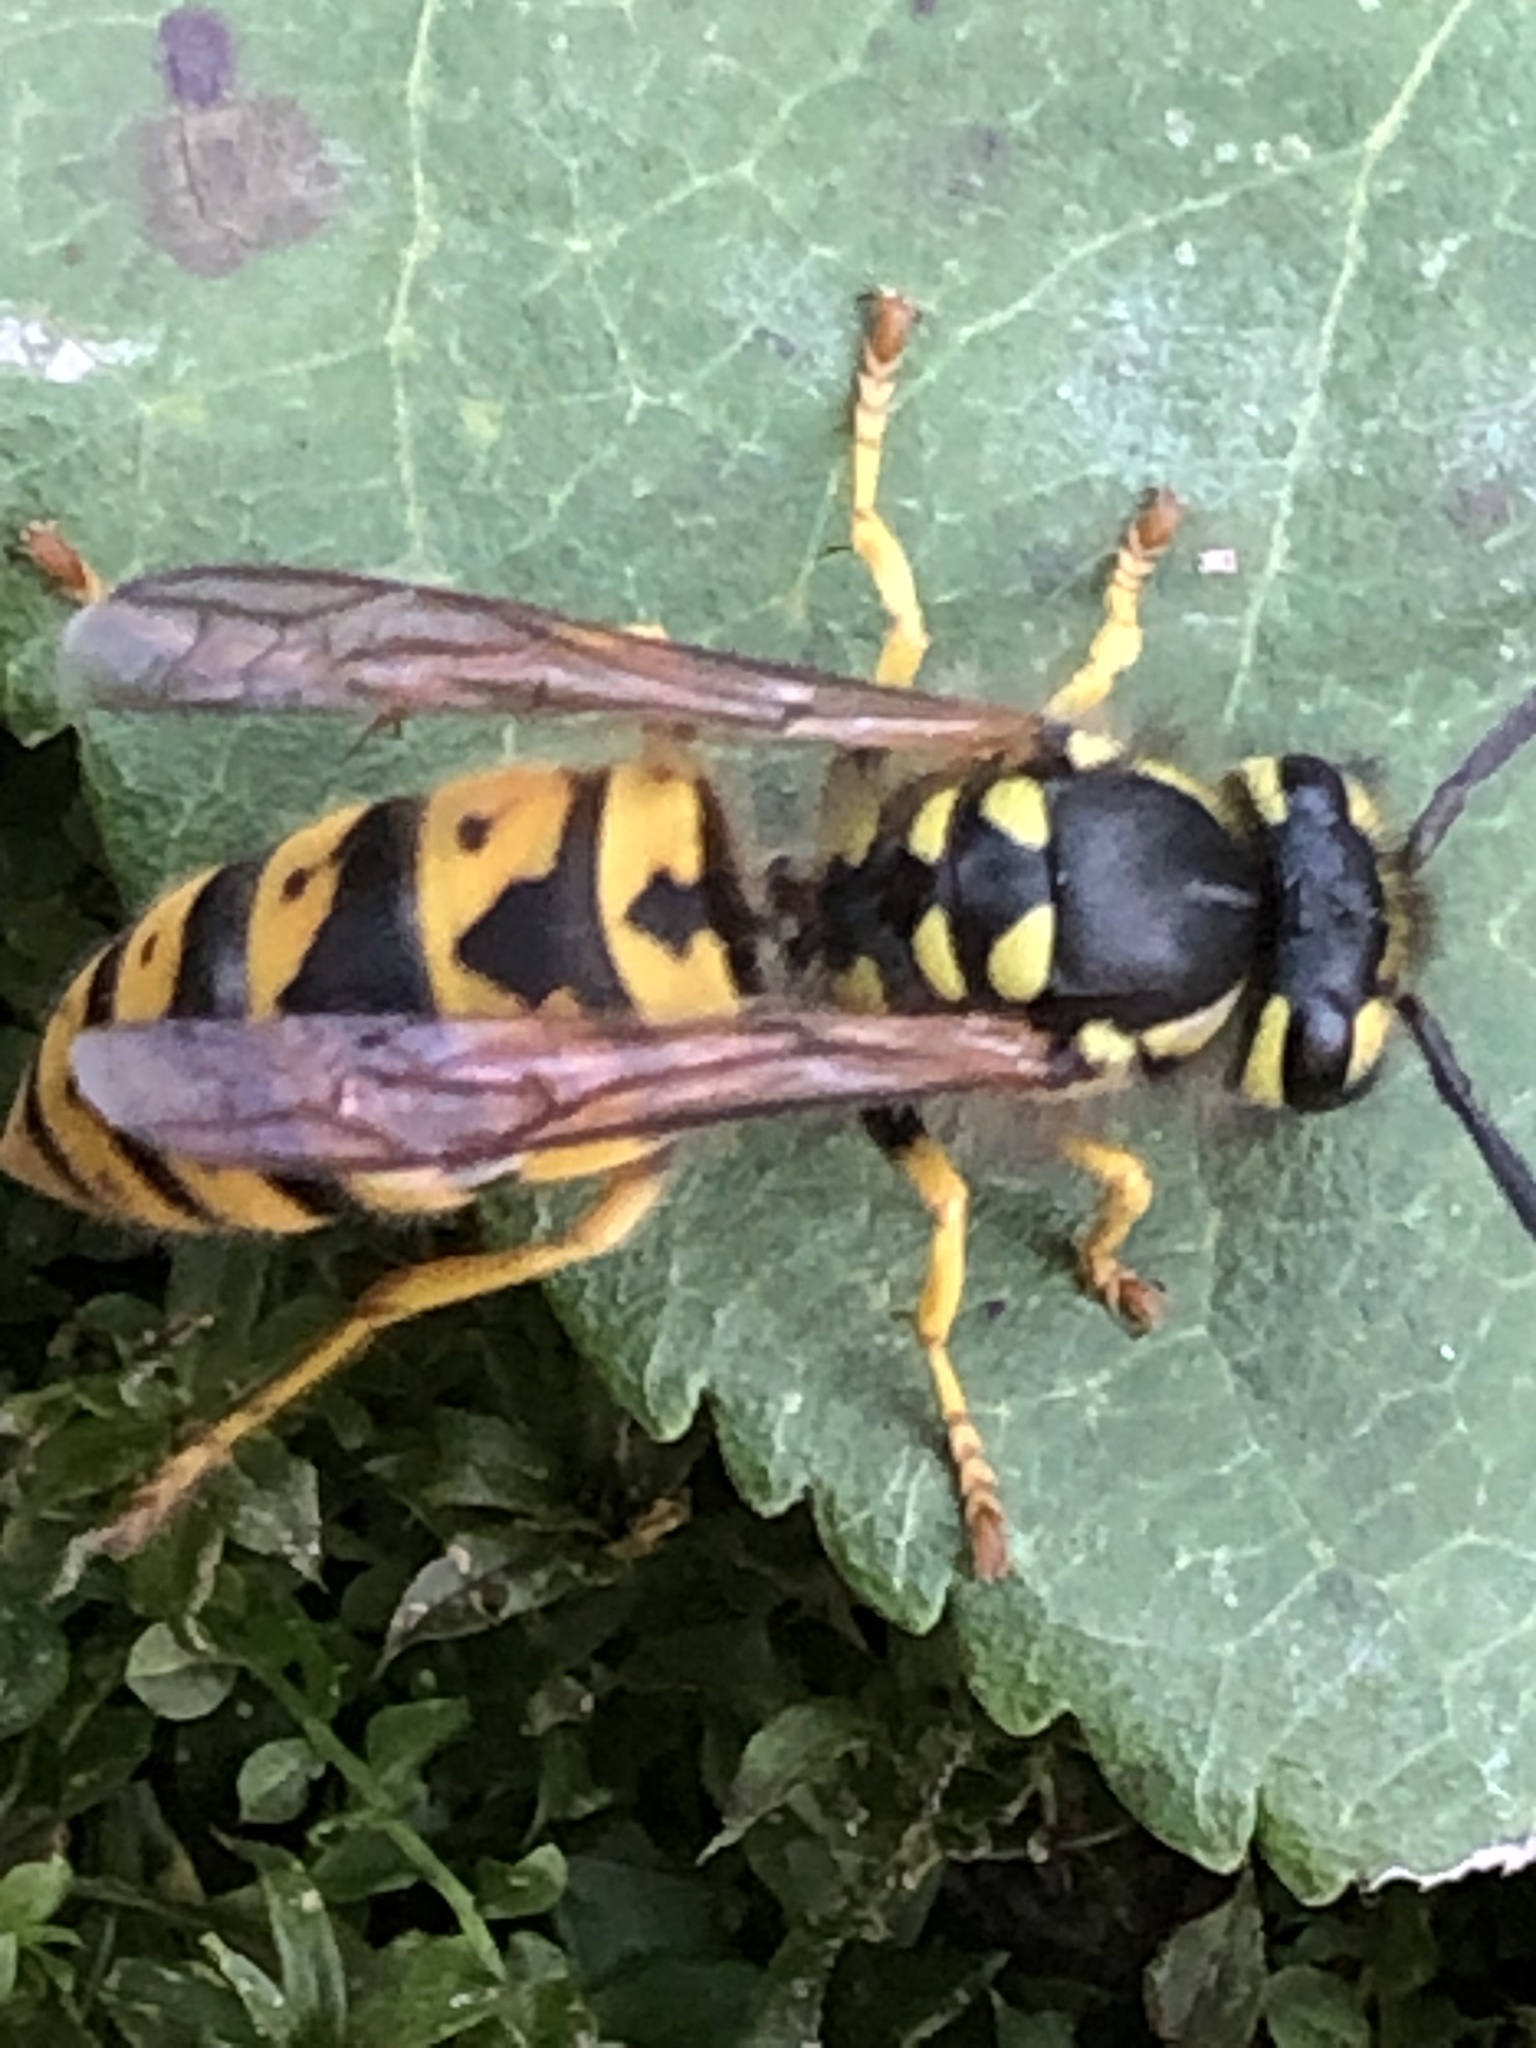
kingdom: Animalia
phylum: Arthropoda
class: Insecta
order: Hymenoptera
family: Vespidae
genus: Vespula
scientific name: Vespula germanica
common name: German wasp
